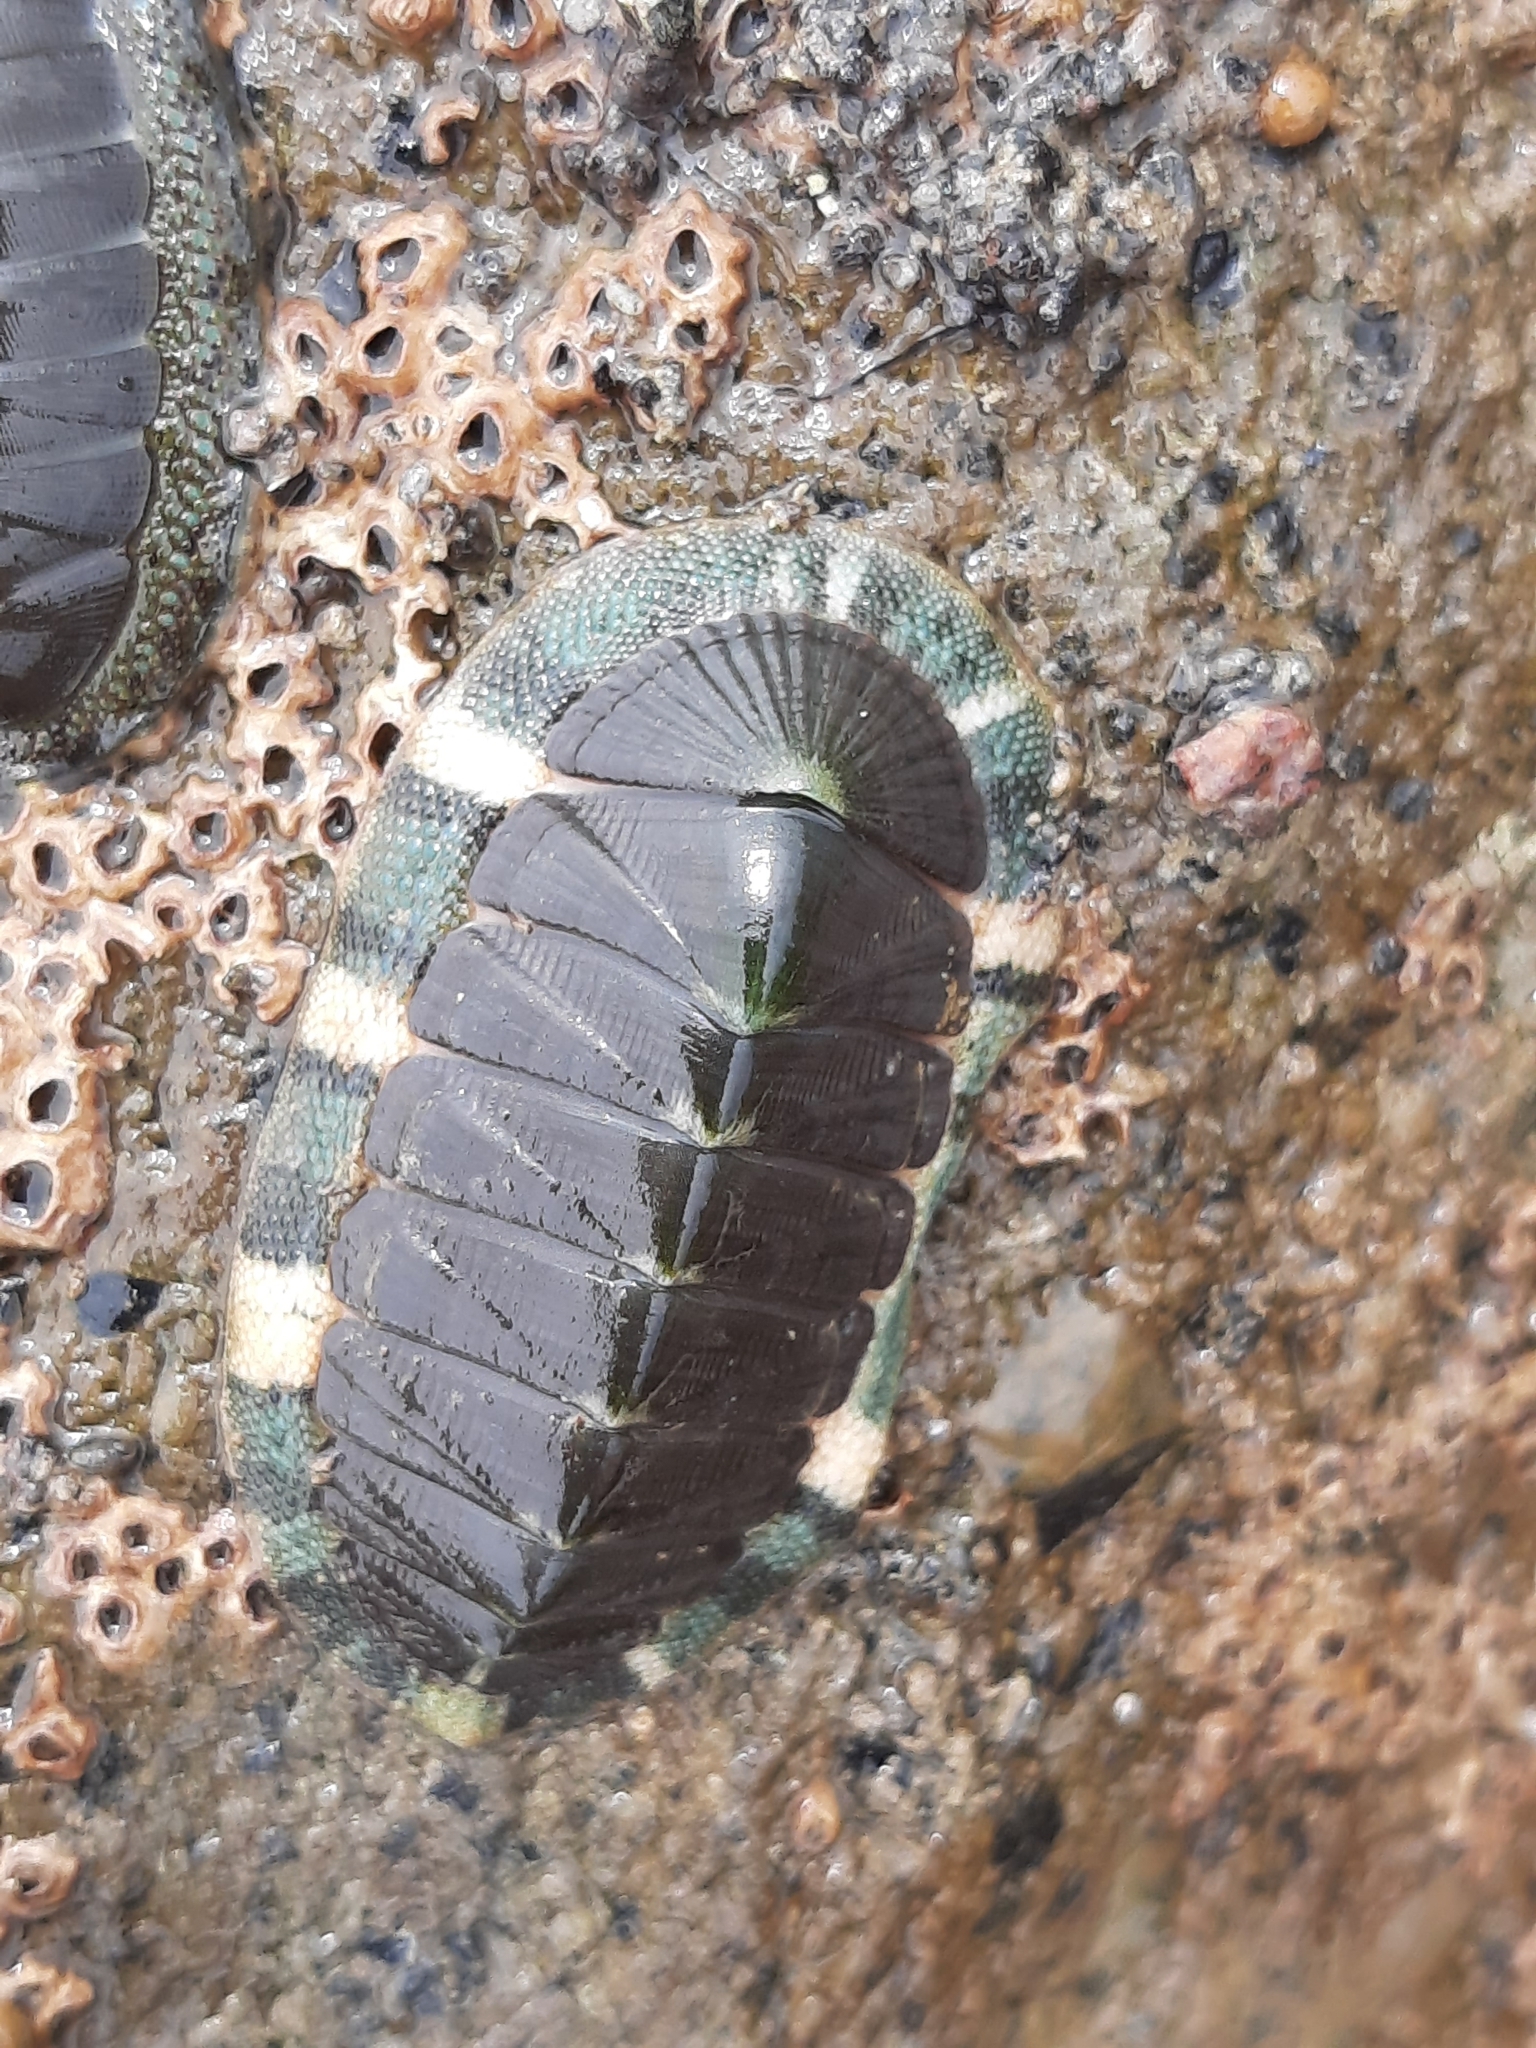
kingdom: Animalia
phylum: Mollusca
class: Polyplacophora
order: Chitonida
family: Chitonidae
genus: Rhyssoplax
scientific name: Rhyssoplax aerea
